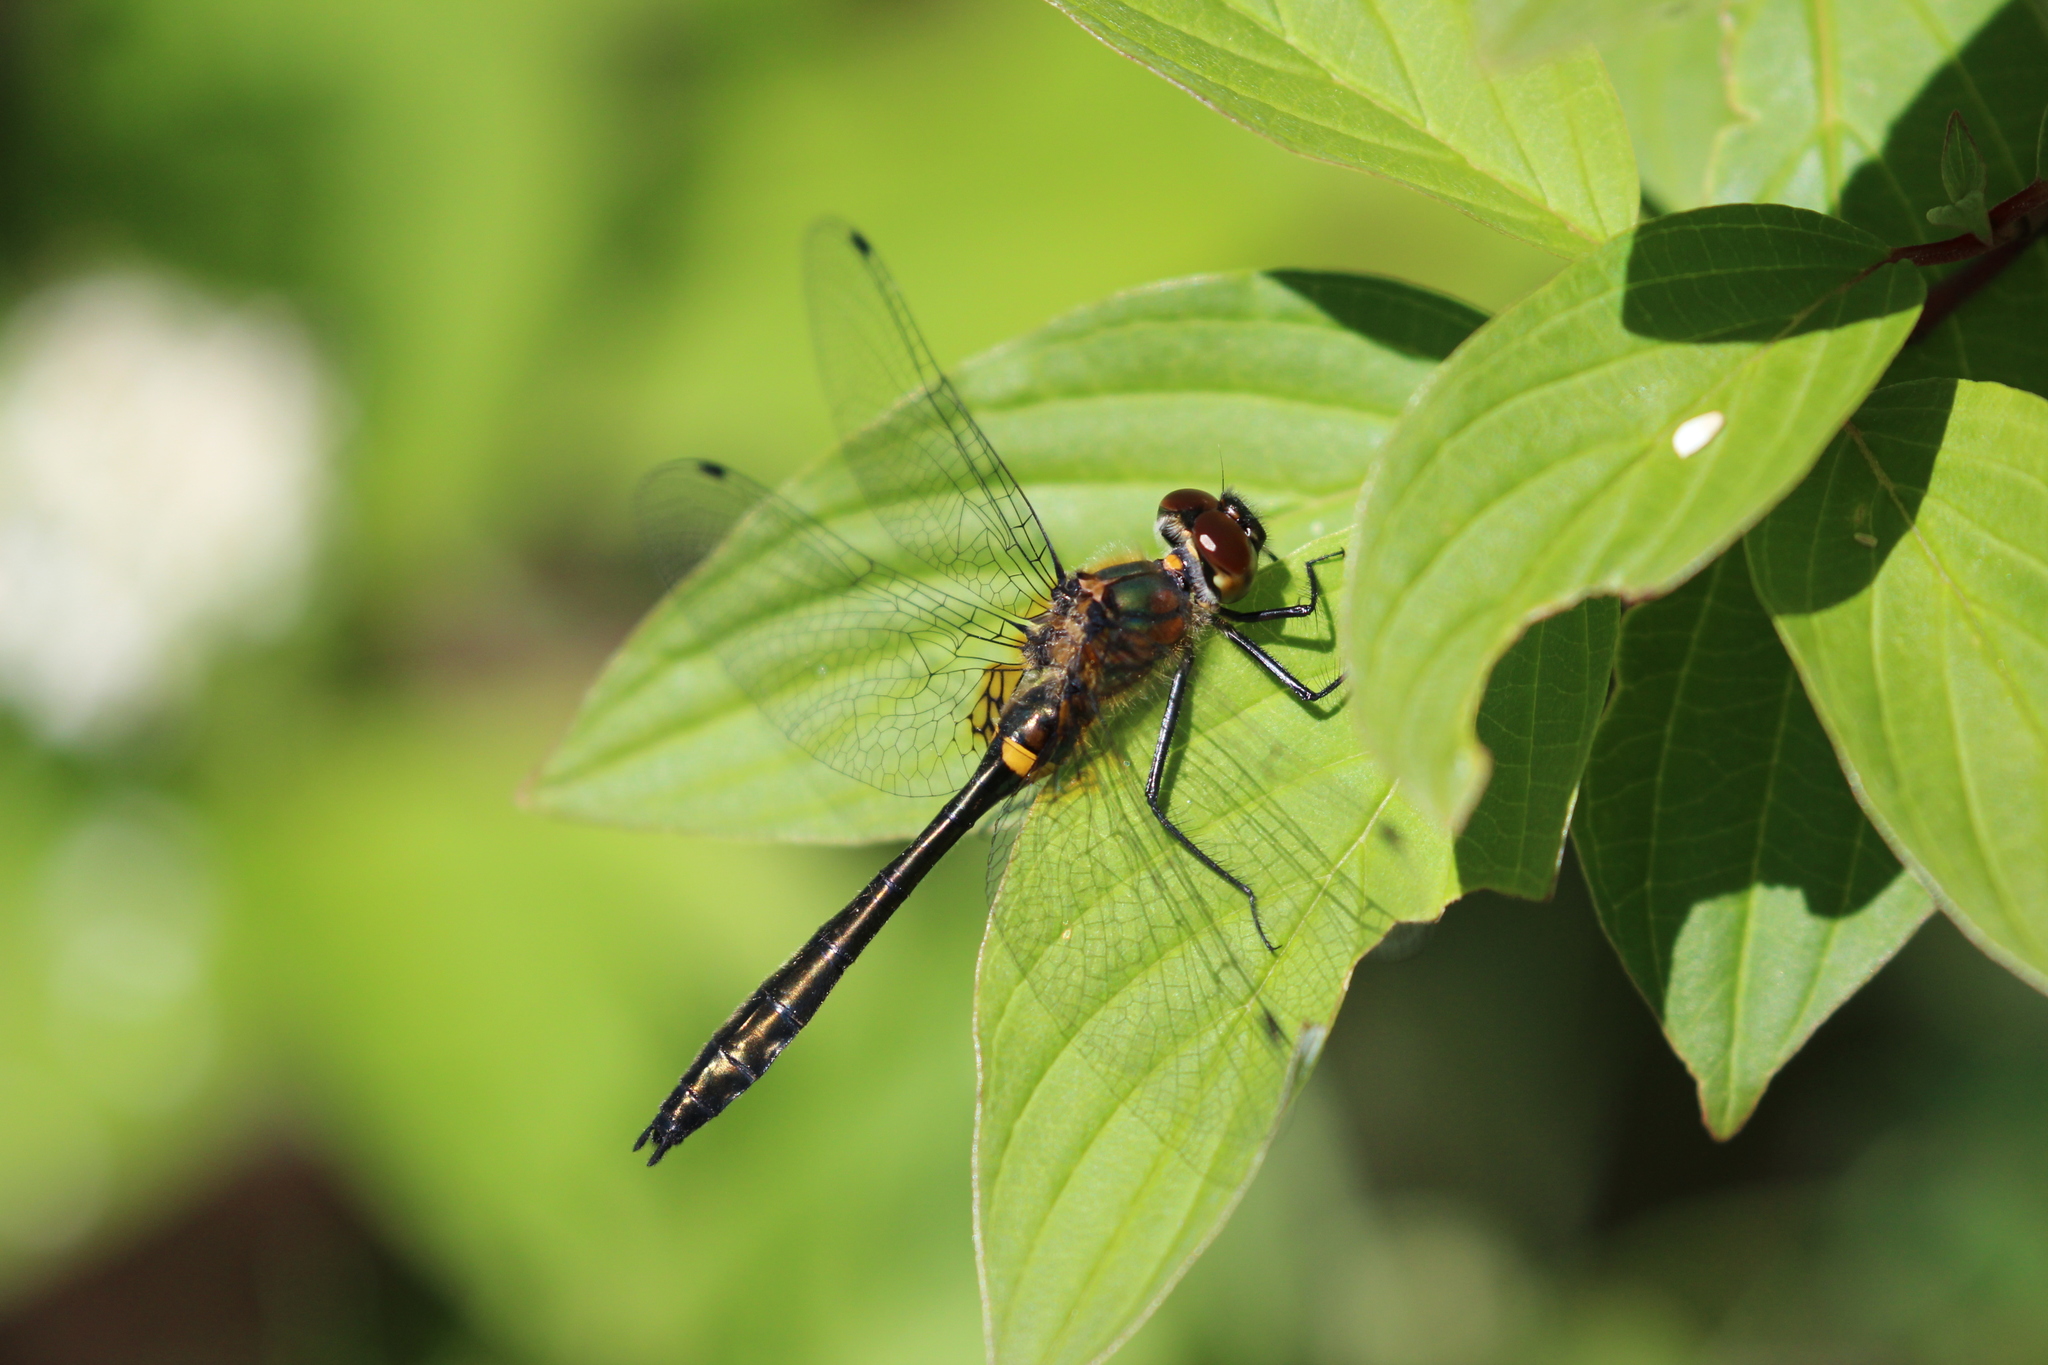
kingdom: Animalia
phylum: Arthropoda
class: Insecta
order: Odonata
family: Corduliidae
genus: Dorocordulia
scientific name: Dorocordulia libera
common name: Racket-tailed emerald
